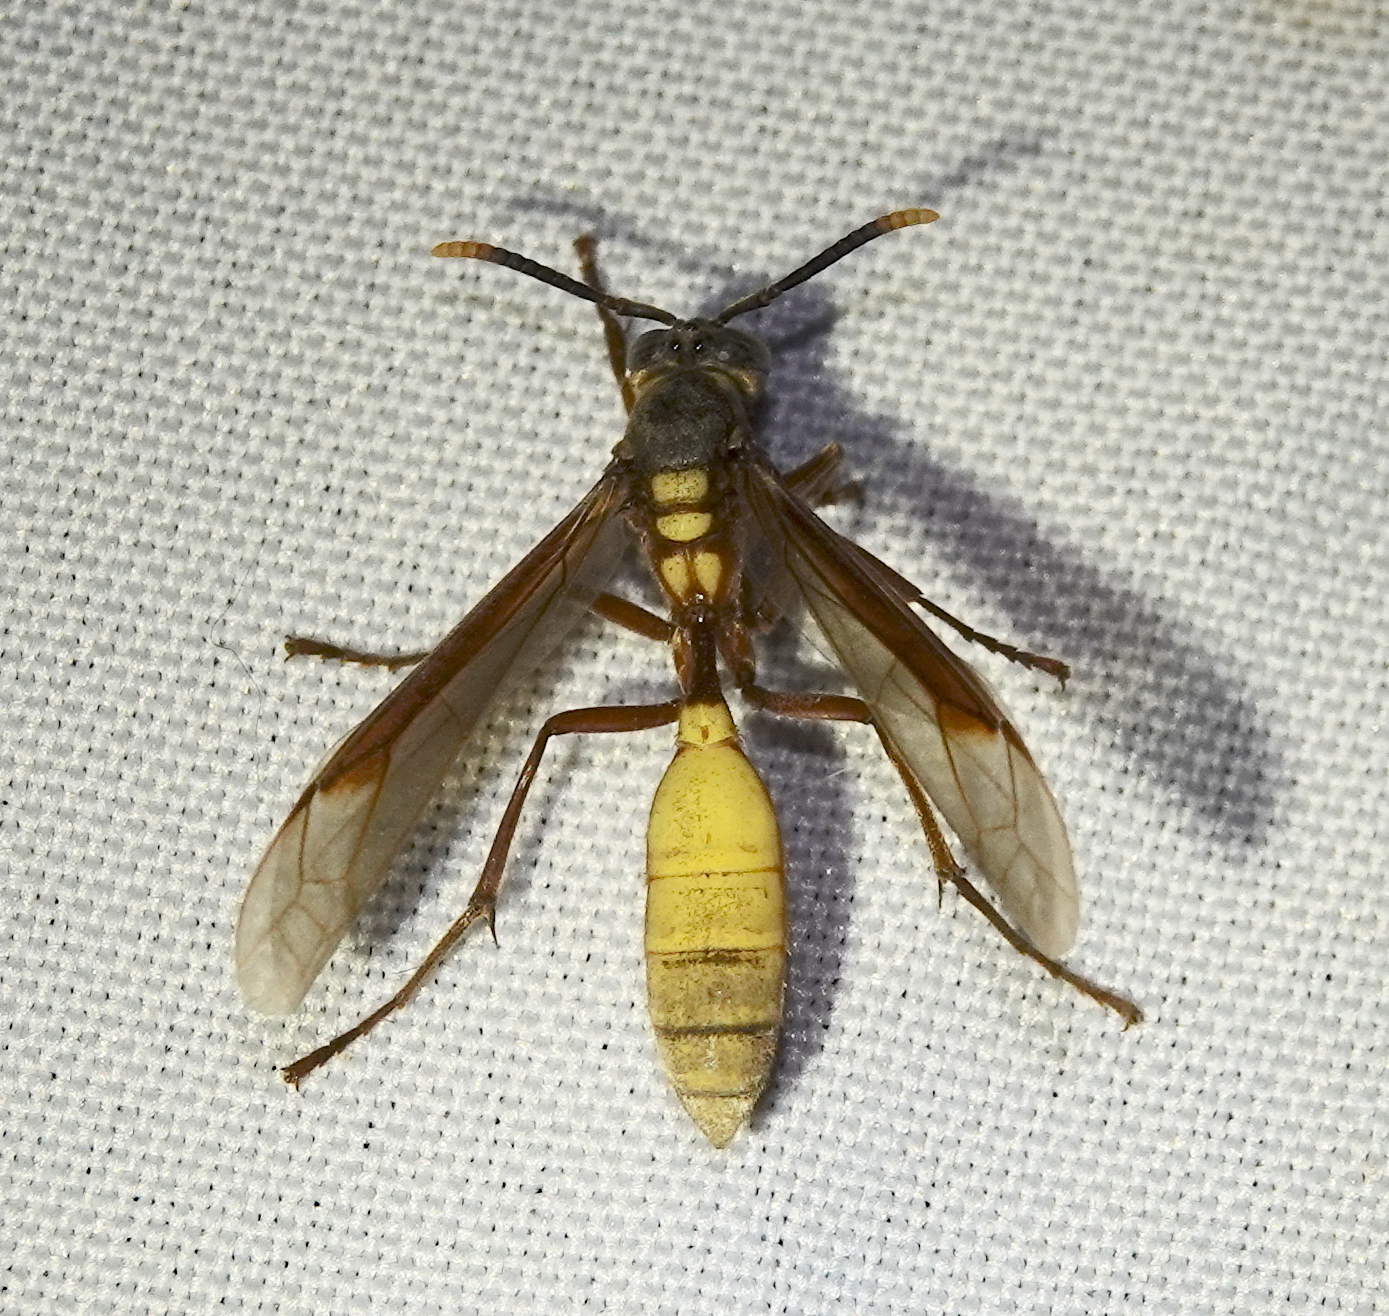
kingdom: Animalia
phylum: Arthropoda
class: Insecta
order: Hymenoptera
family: Vespidae
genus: Apoica
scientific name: Apoica pallens
